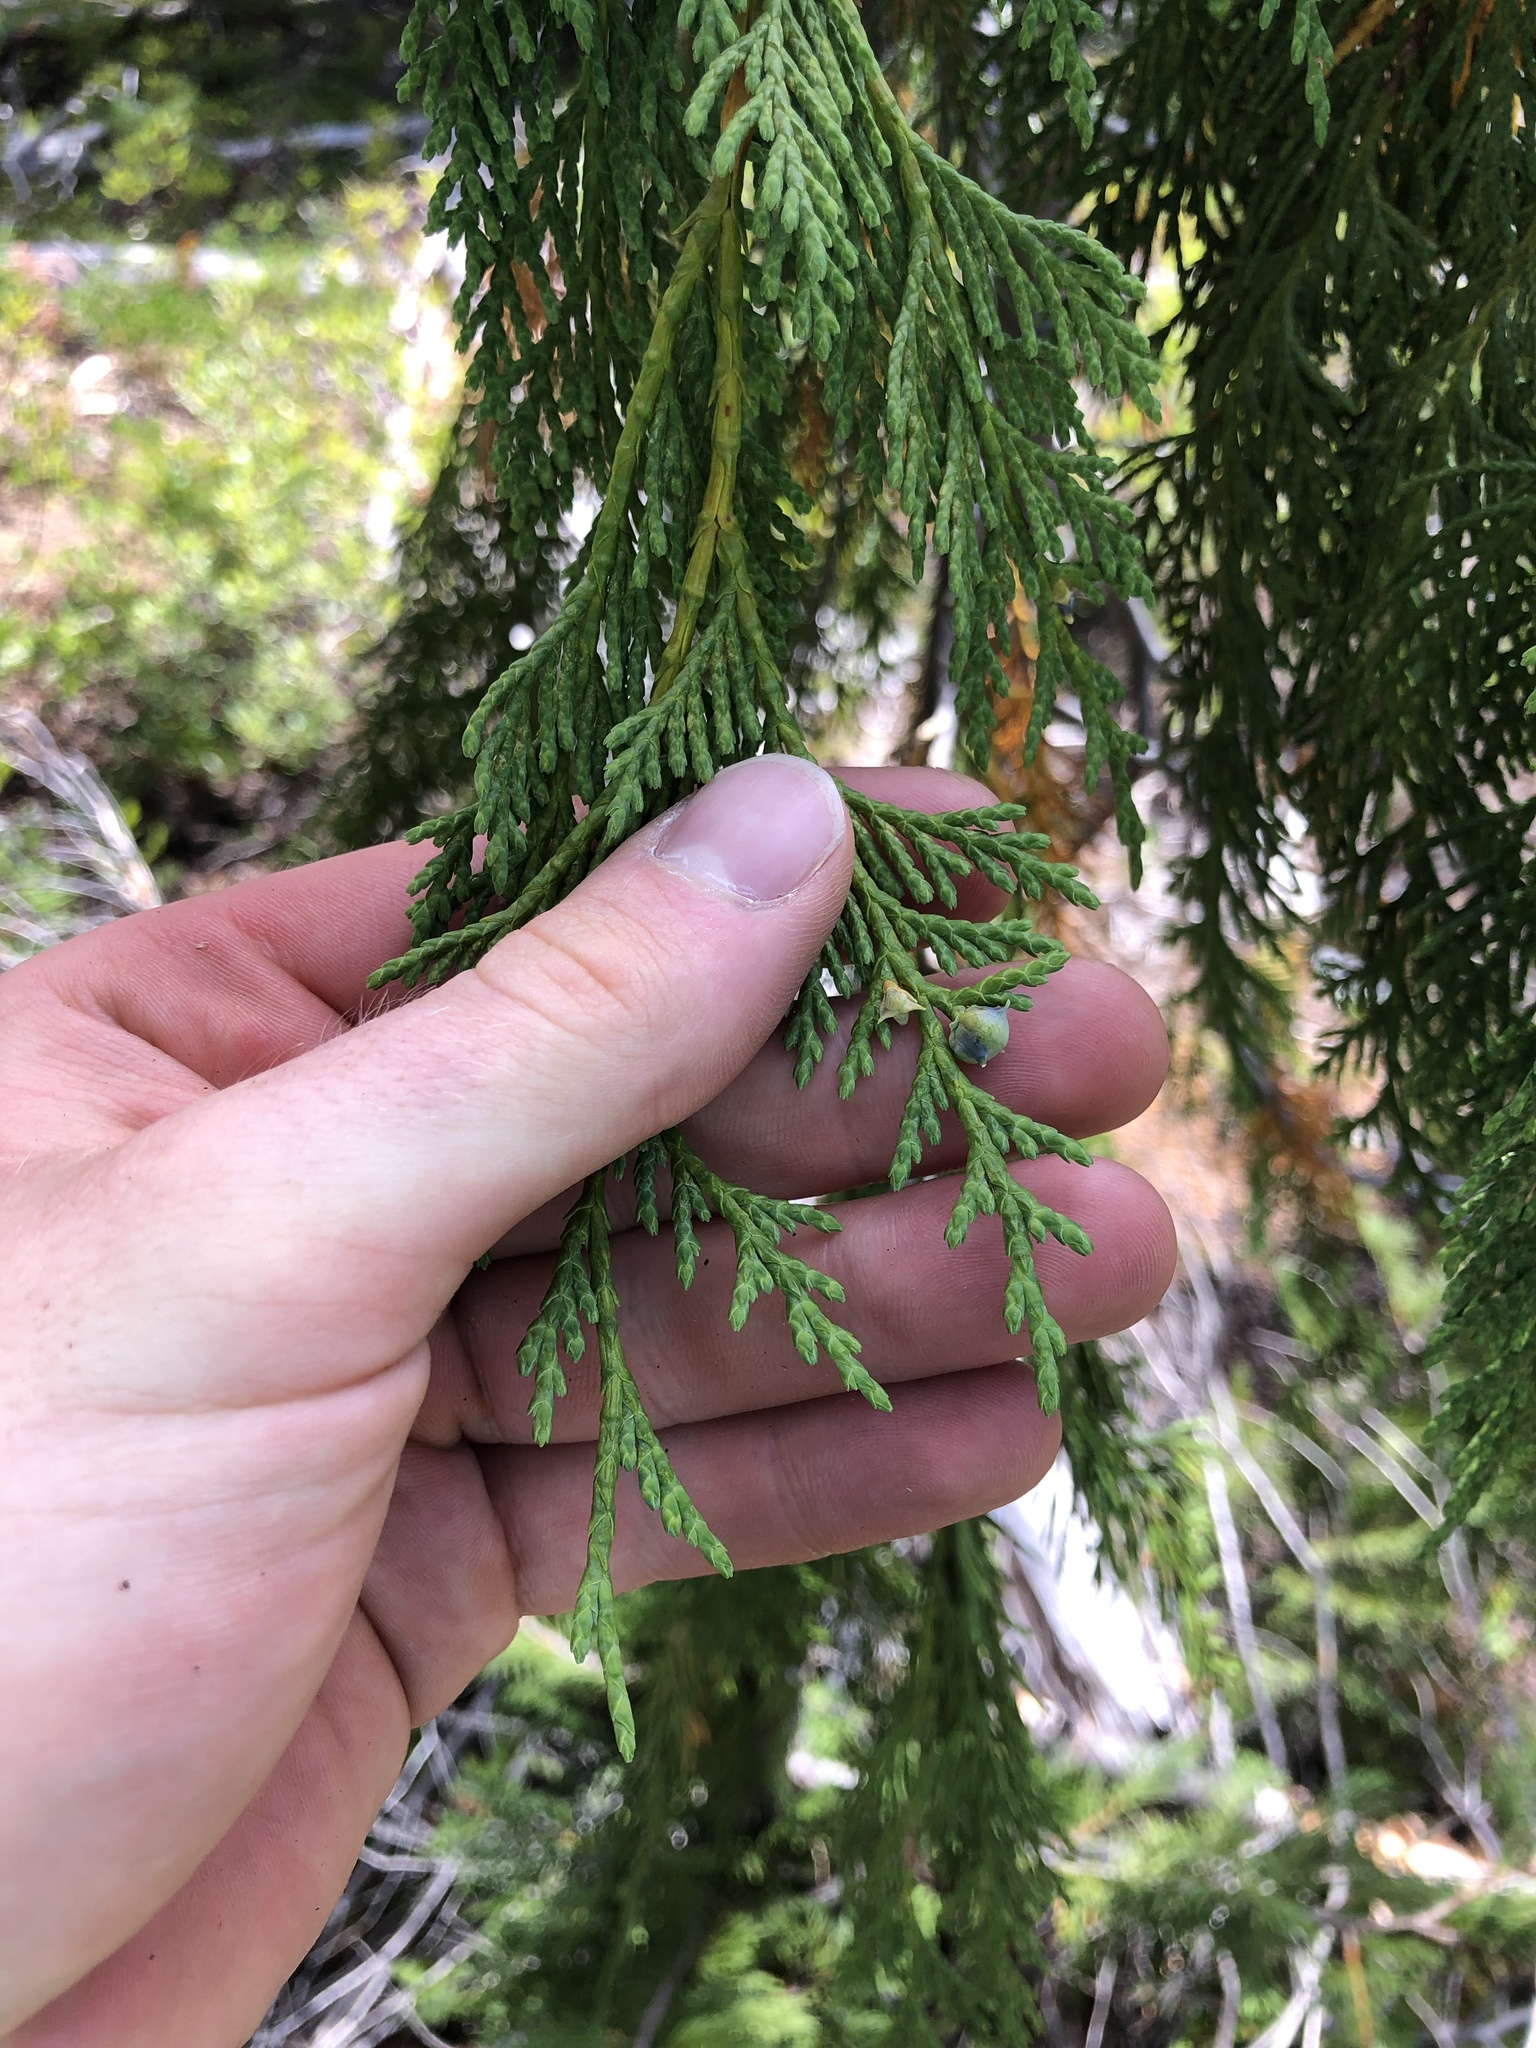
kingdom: Plantae
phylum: Tracheophyta
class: Pinopsida
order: Pinales
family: Cupressaceae
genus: Xanthocyparis
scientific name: Xanthocyparis nootkatensis
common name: Nootka cypress
